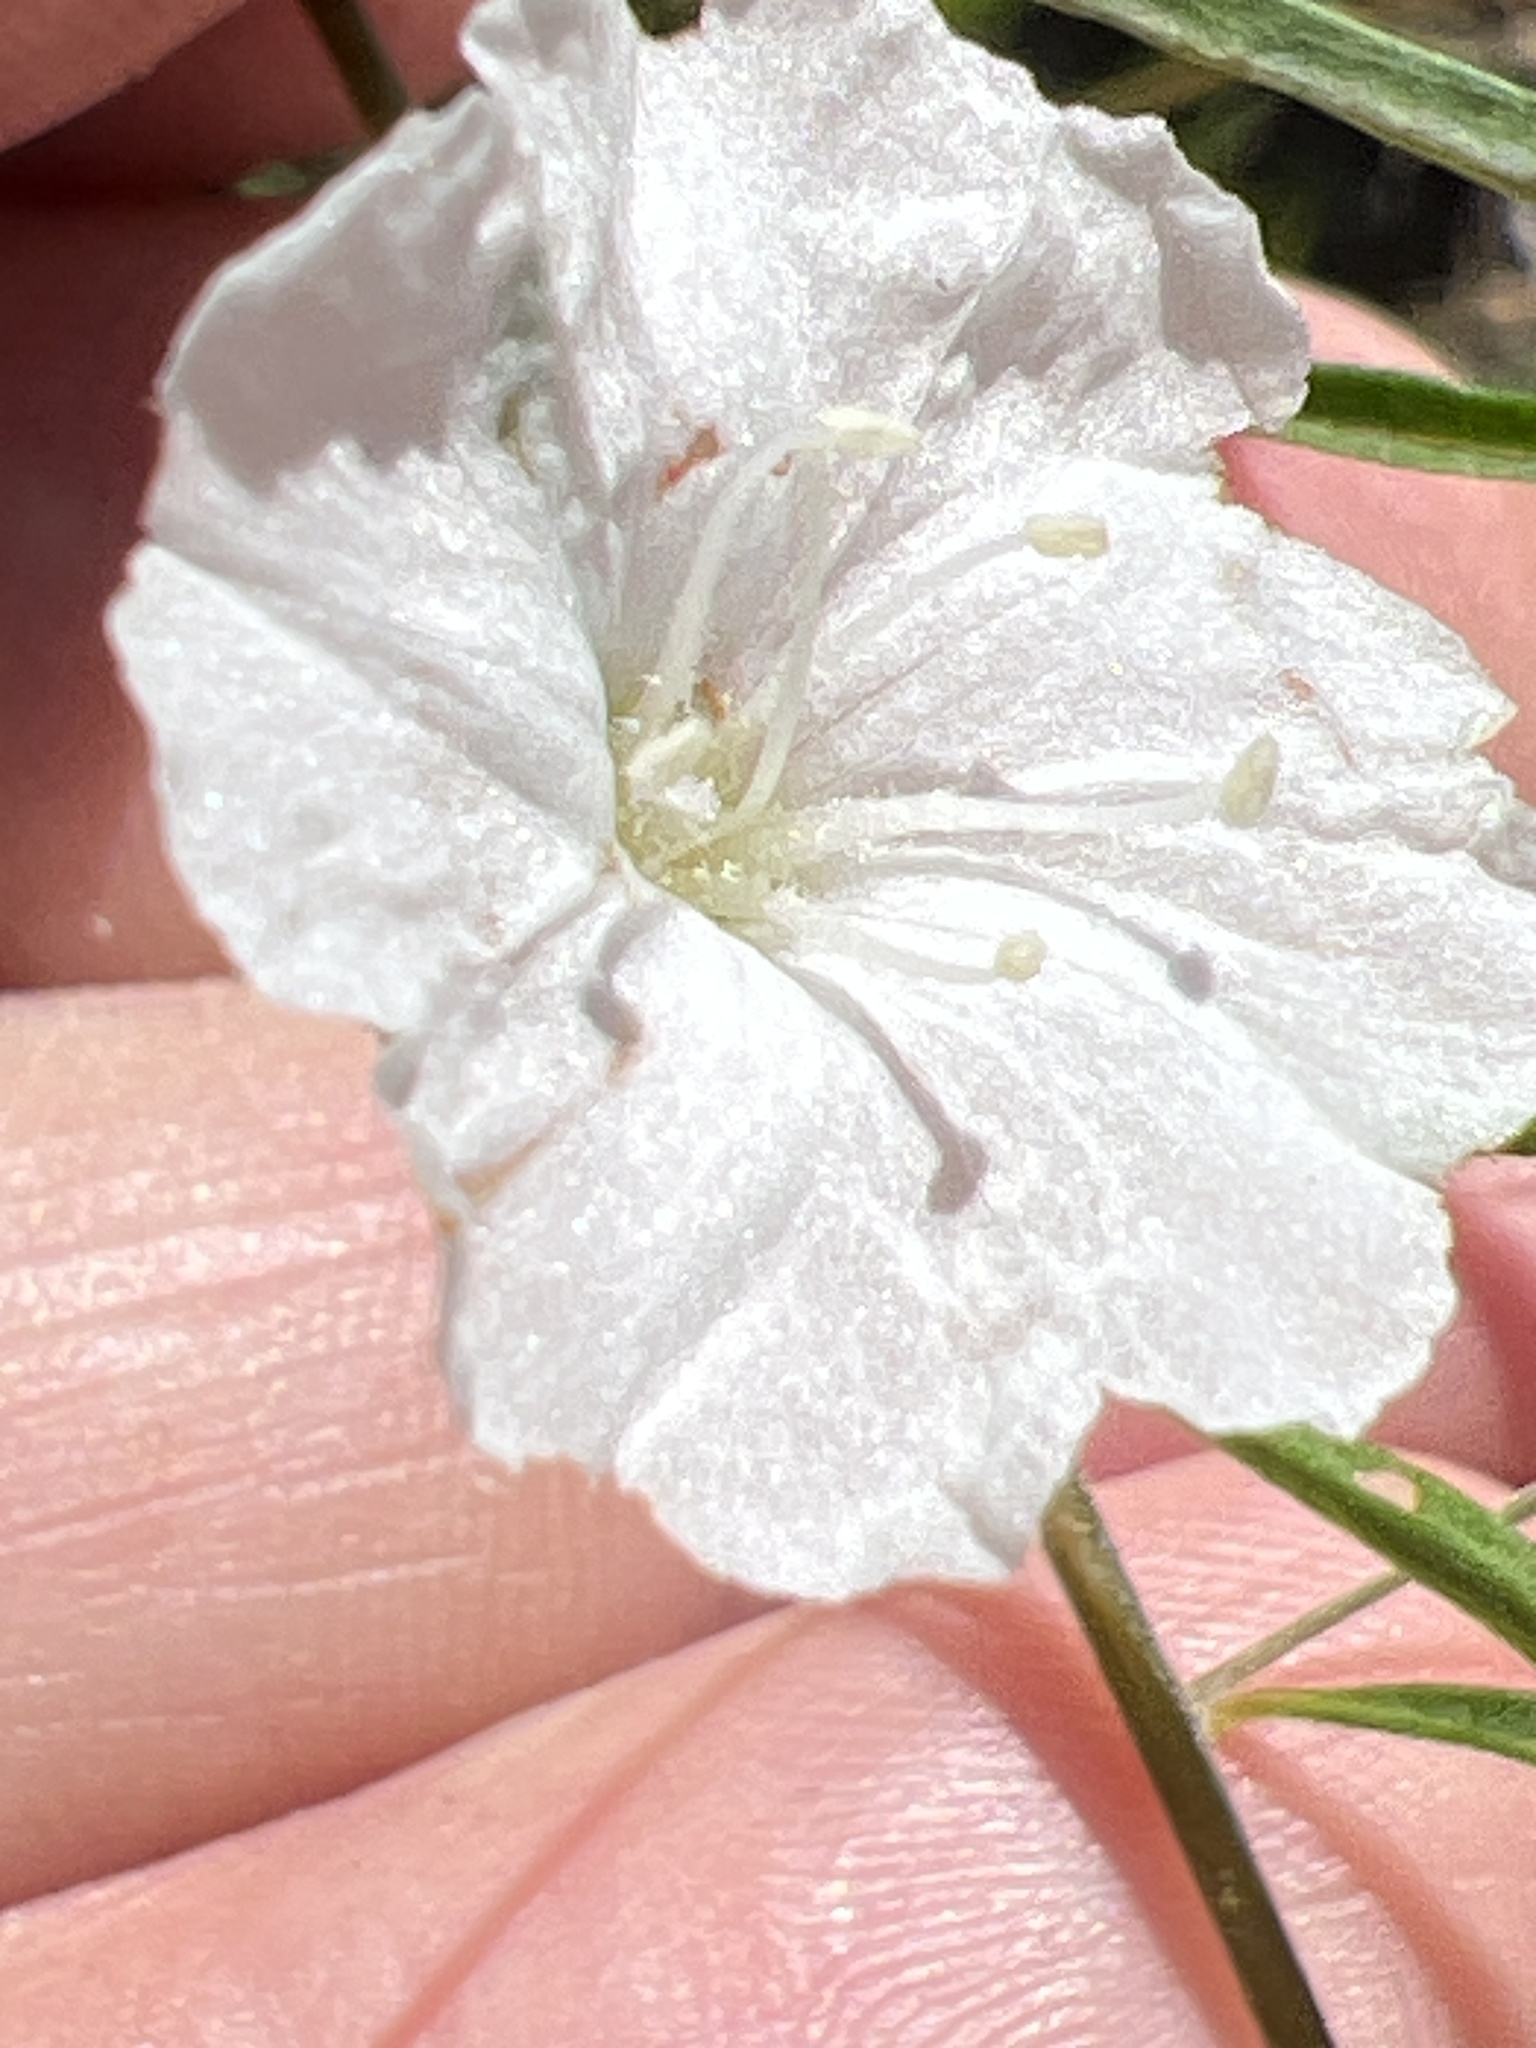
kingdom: Plantae
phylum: Tracheophyta
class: Magnoliopsida
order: Solanales
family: Convolvulaceae
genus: Stylisma
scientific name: Stylisma pickeringii
